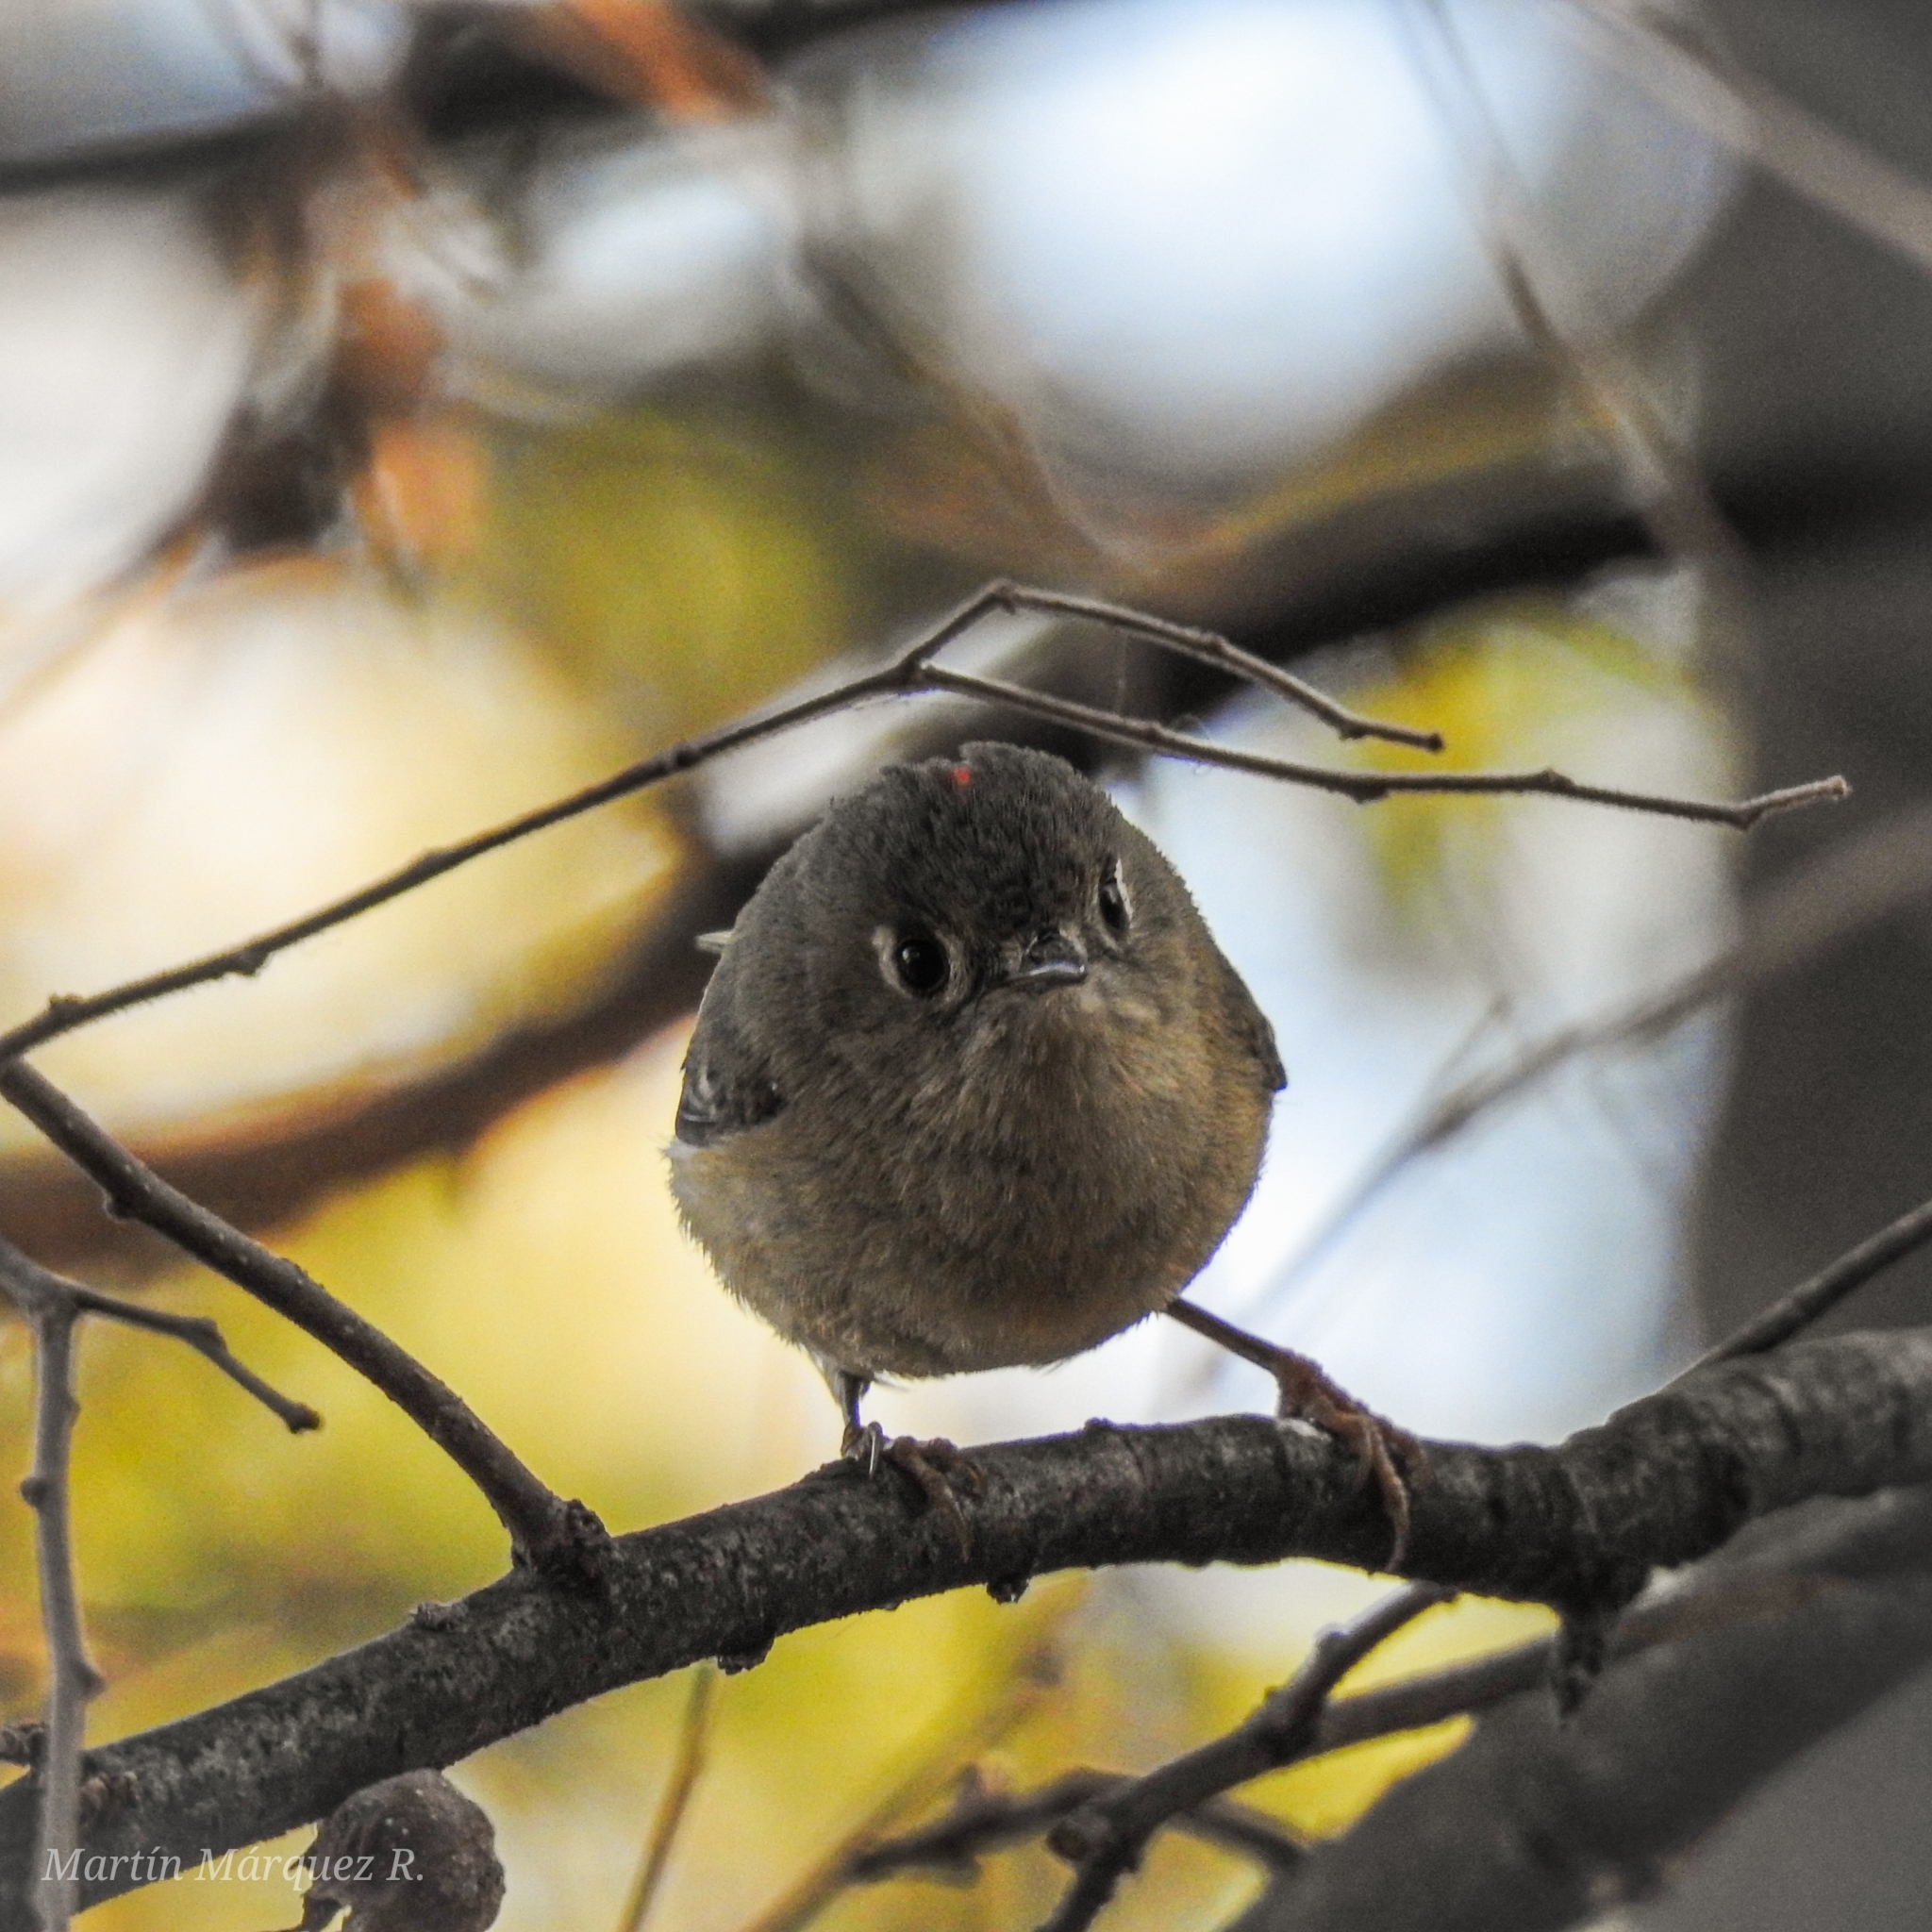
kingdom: Animalia
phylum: Chordata
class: Aves
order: Passeriformes
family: Regulidae
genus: Regulus
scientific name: Regulus calendula
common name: Ruby-crowned kinglet
